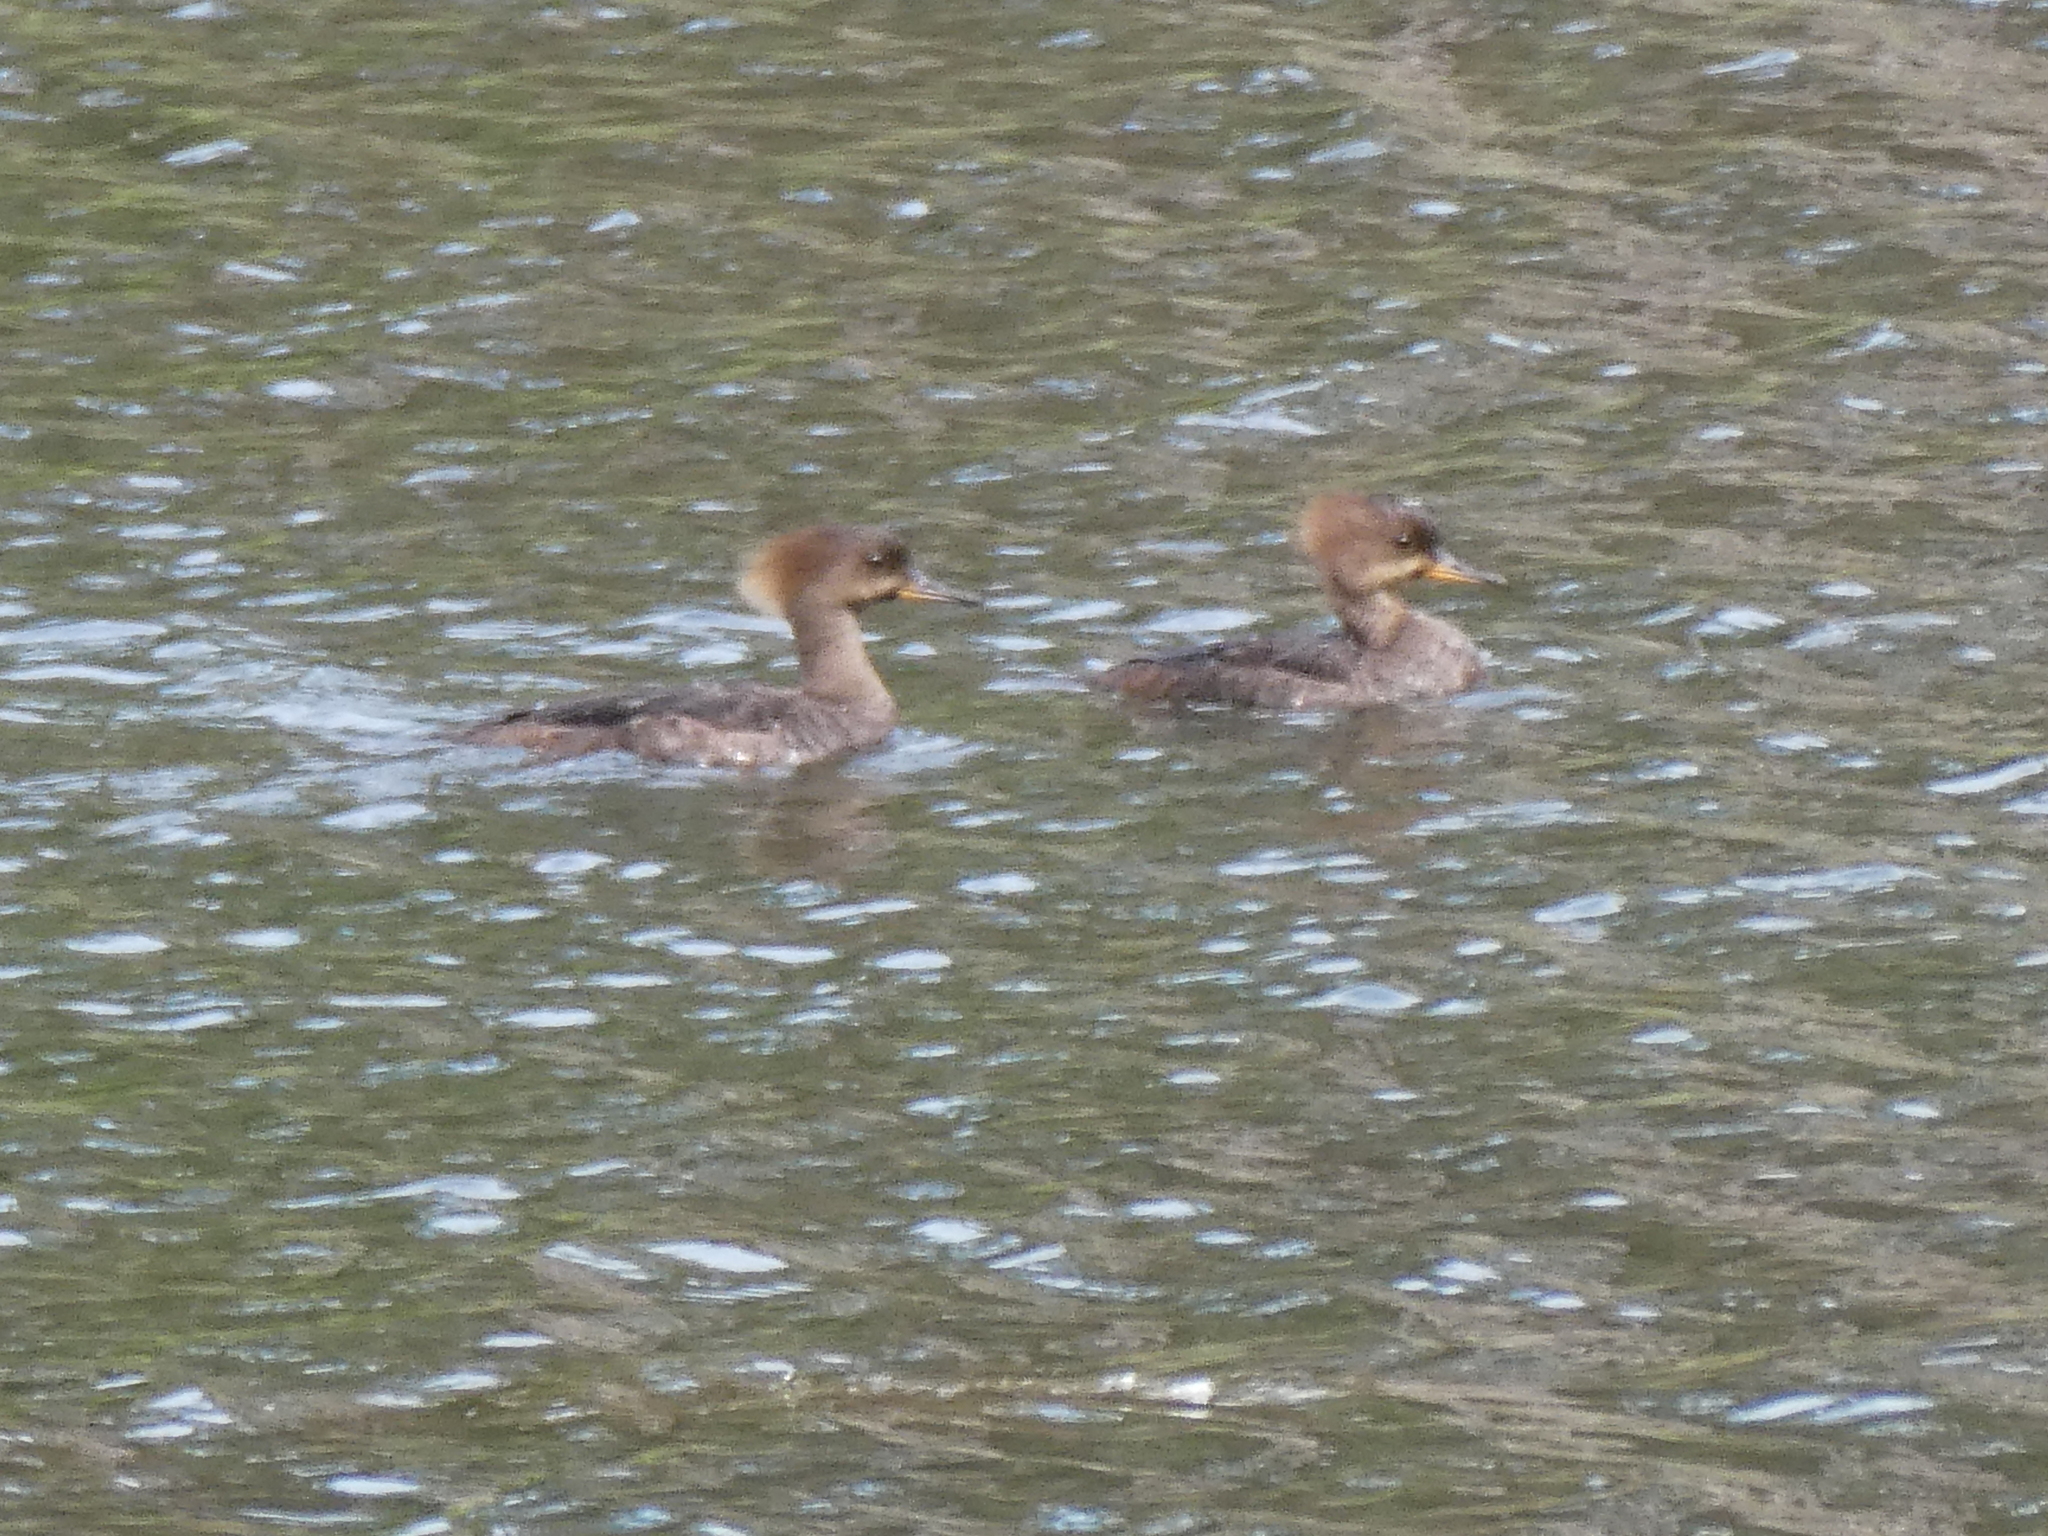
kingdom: Animalia
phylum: Chordata
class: Aves
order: Anseriformes
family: Anatidae
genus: Lophodytes
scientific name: Lophodytes cucullatus
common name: Hooded merganser
